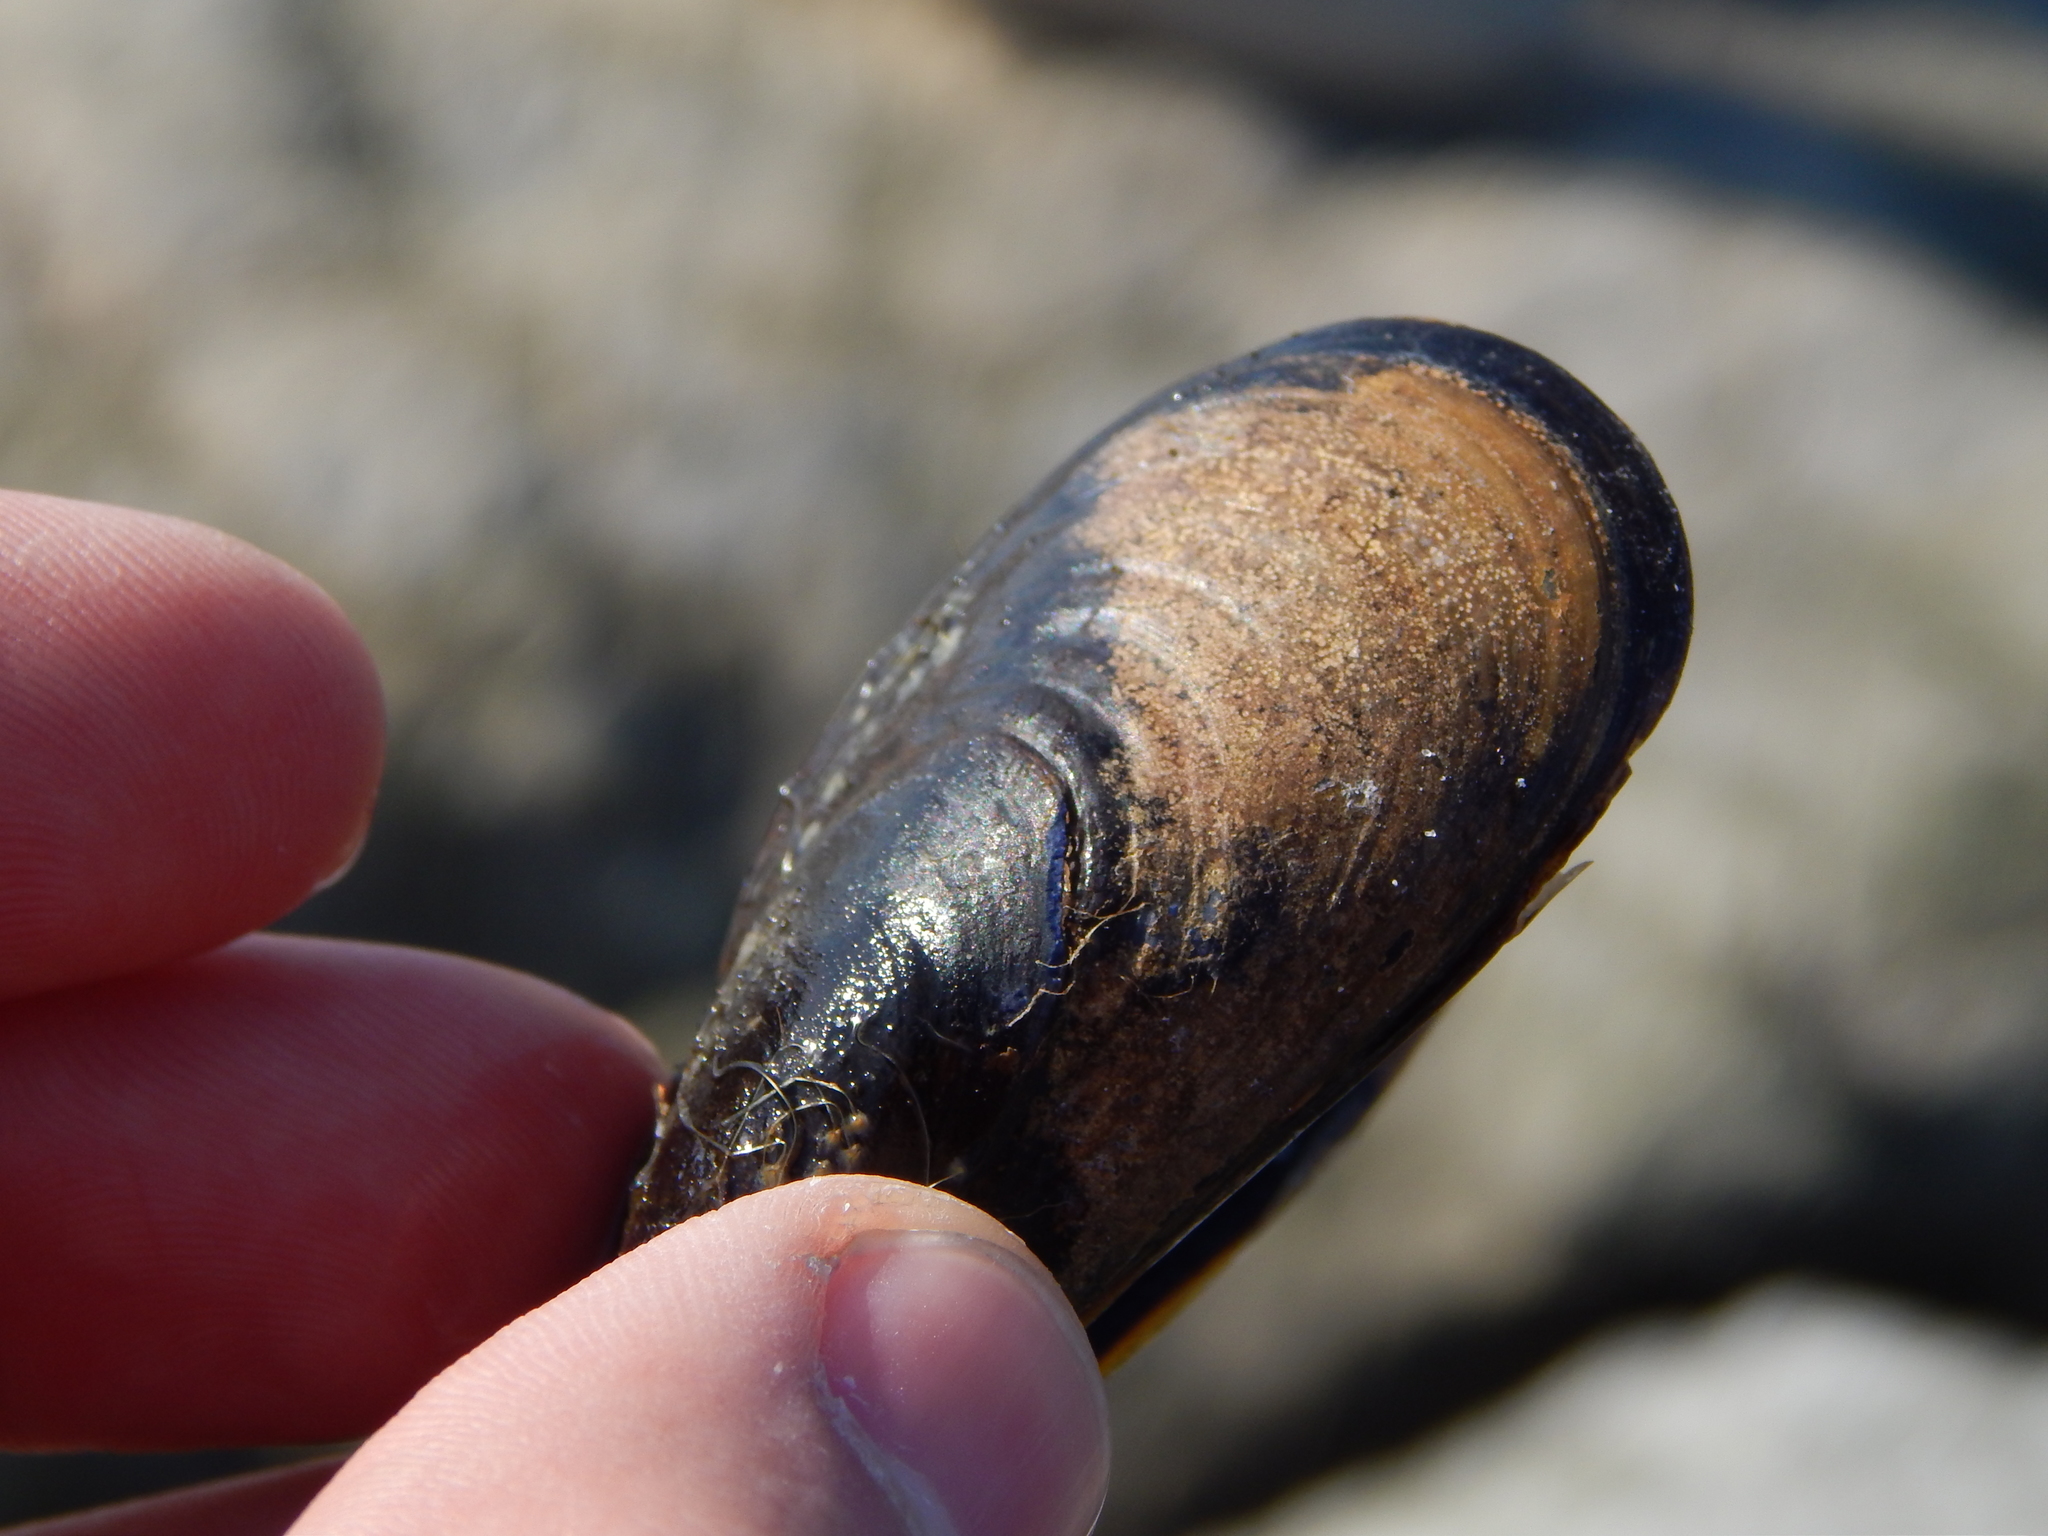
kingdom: Animalia
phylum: Mollusca
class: Bivalvia
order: Mytilida
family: Mytilidae
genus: Mytilus
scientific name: Mytilus edulis
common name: Blue mussel
